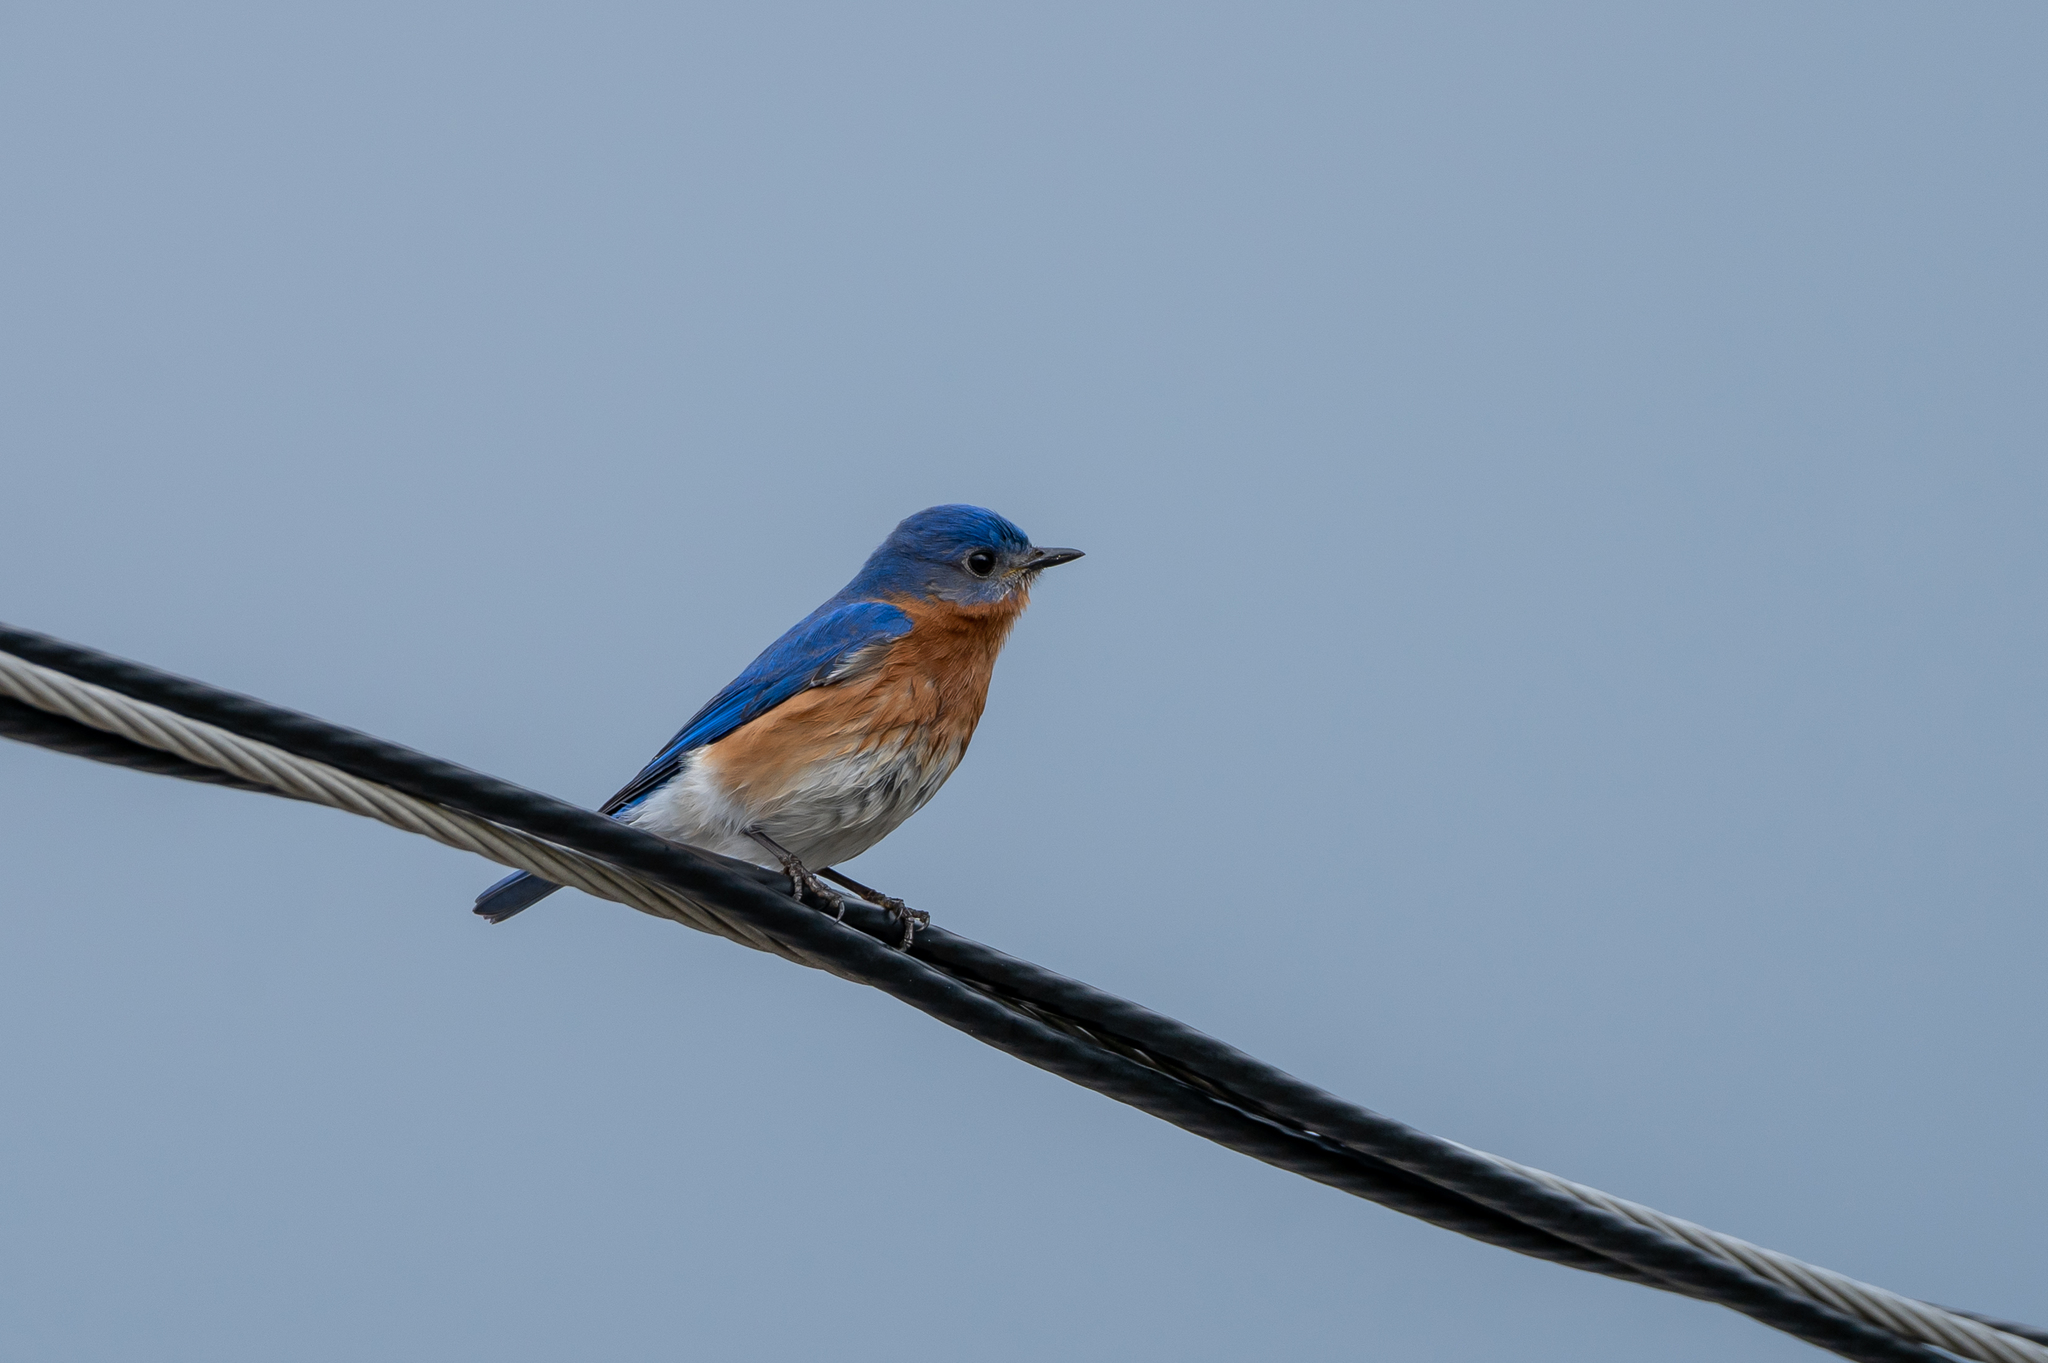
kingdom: Animalia
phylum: Chordata
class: Aves
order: Passeriformes
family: Turdidae
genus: Sialia
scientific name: Sialia sialis
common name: Eastern bluebird
